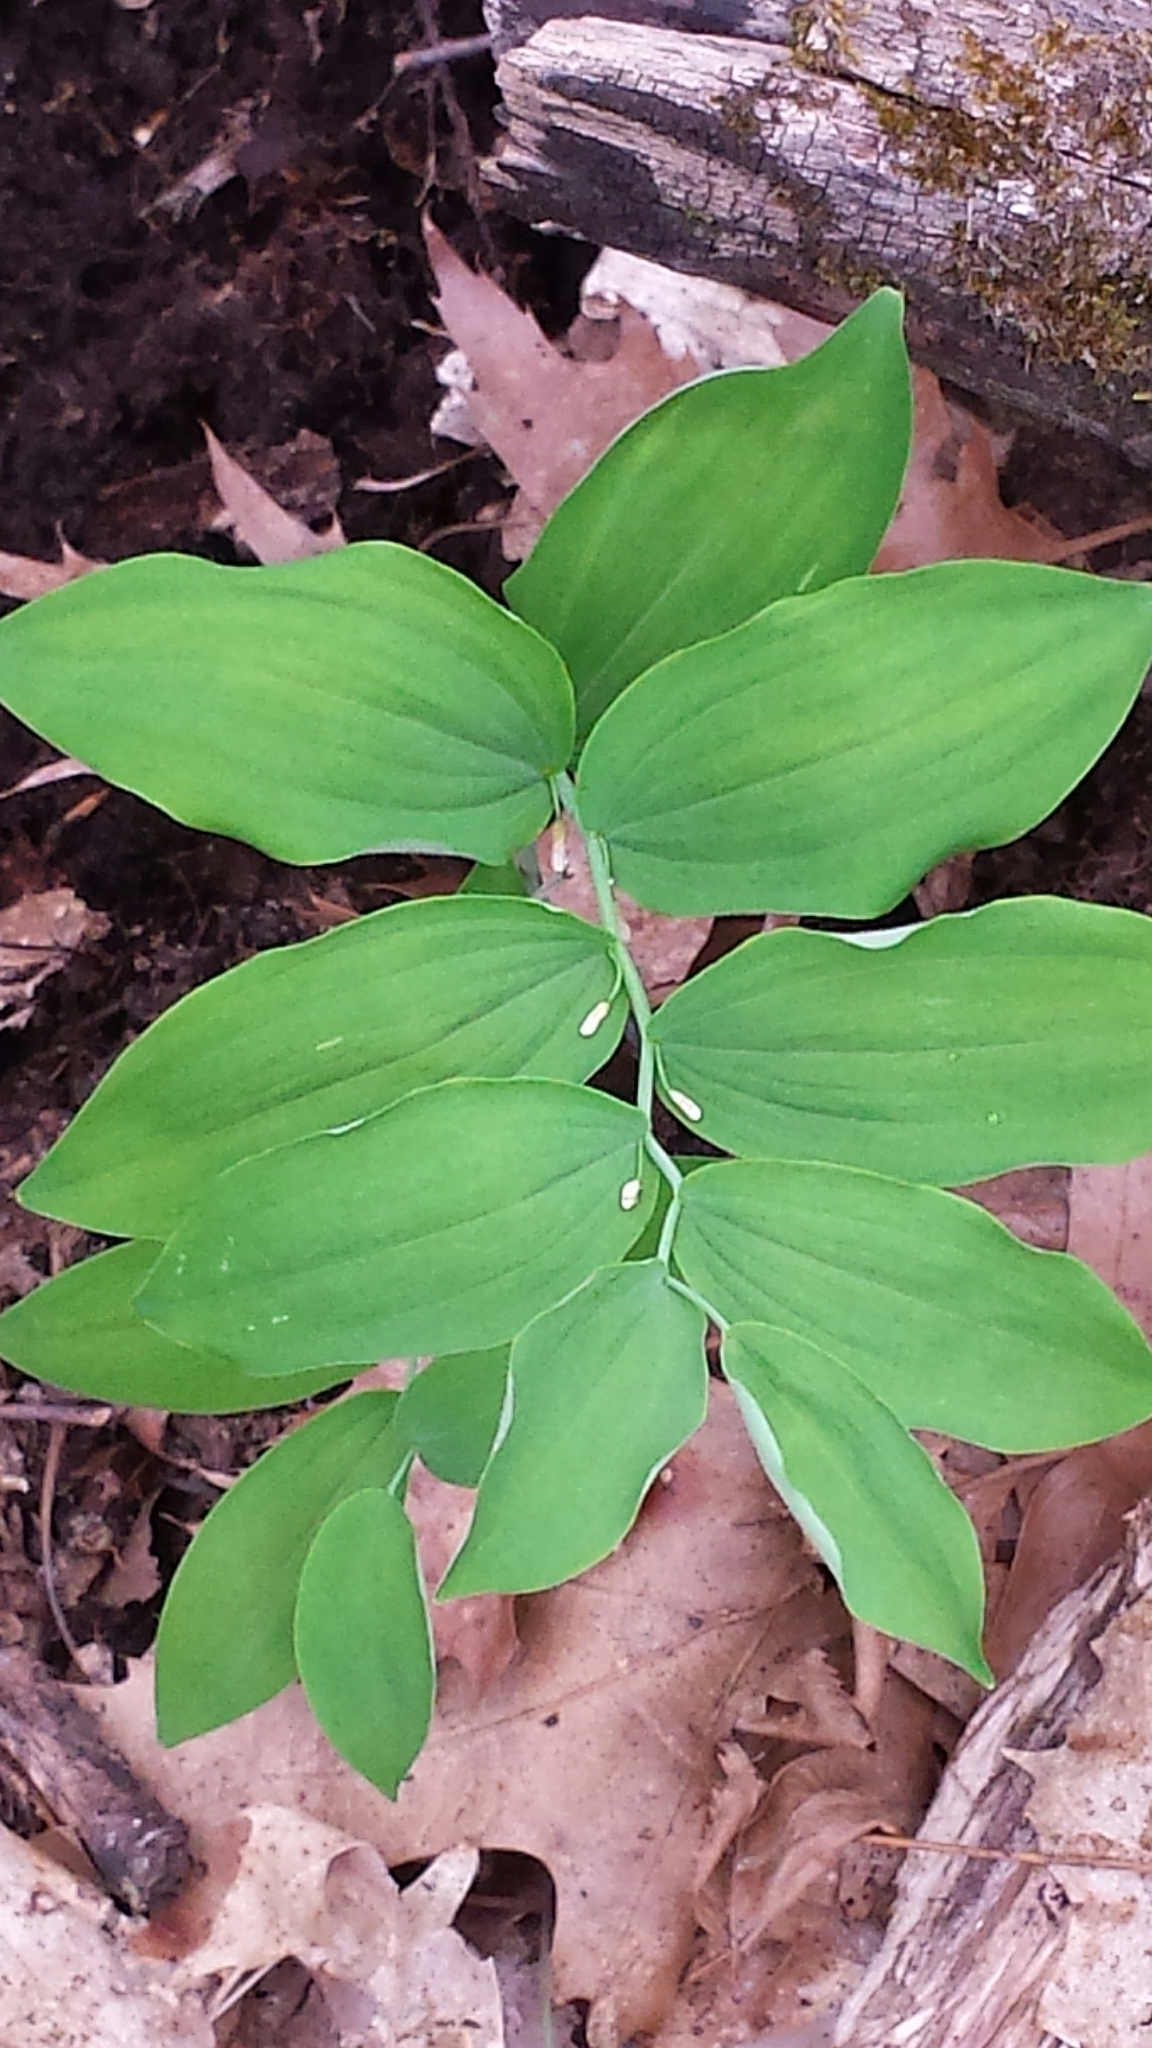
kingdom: Plantae
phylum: Tracheophyta
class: Liliopsida
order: Asparagales
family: Asparagaceae
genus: Polygonatum
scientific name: Polygonatum pubescens
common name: Downy solomon's seal
